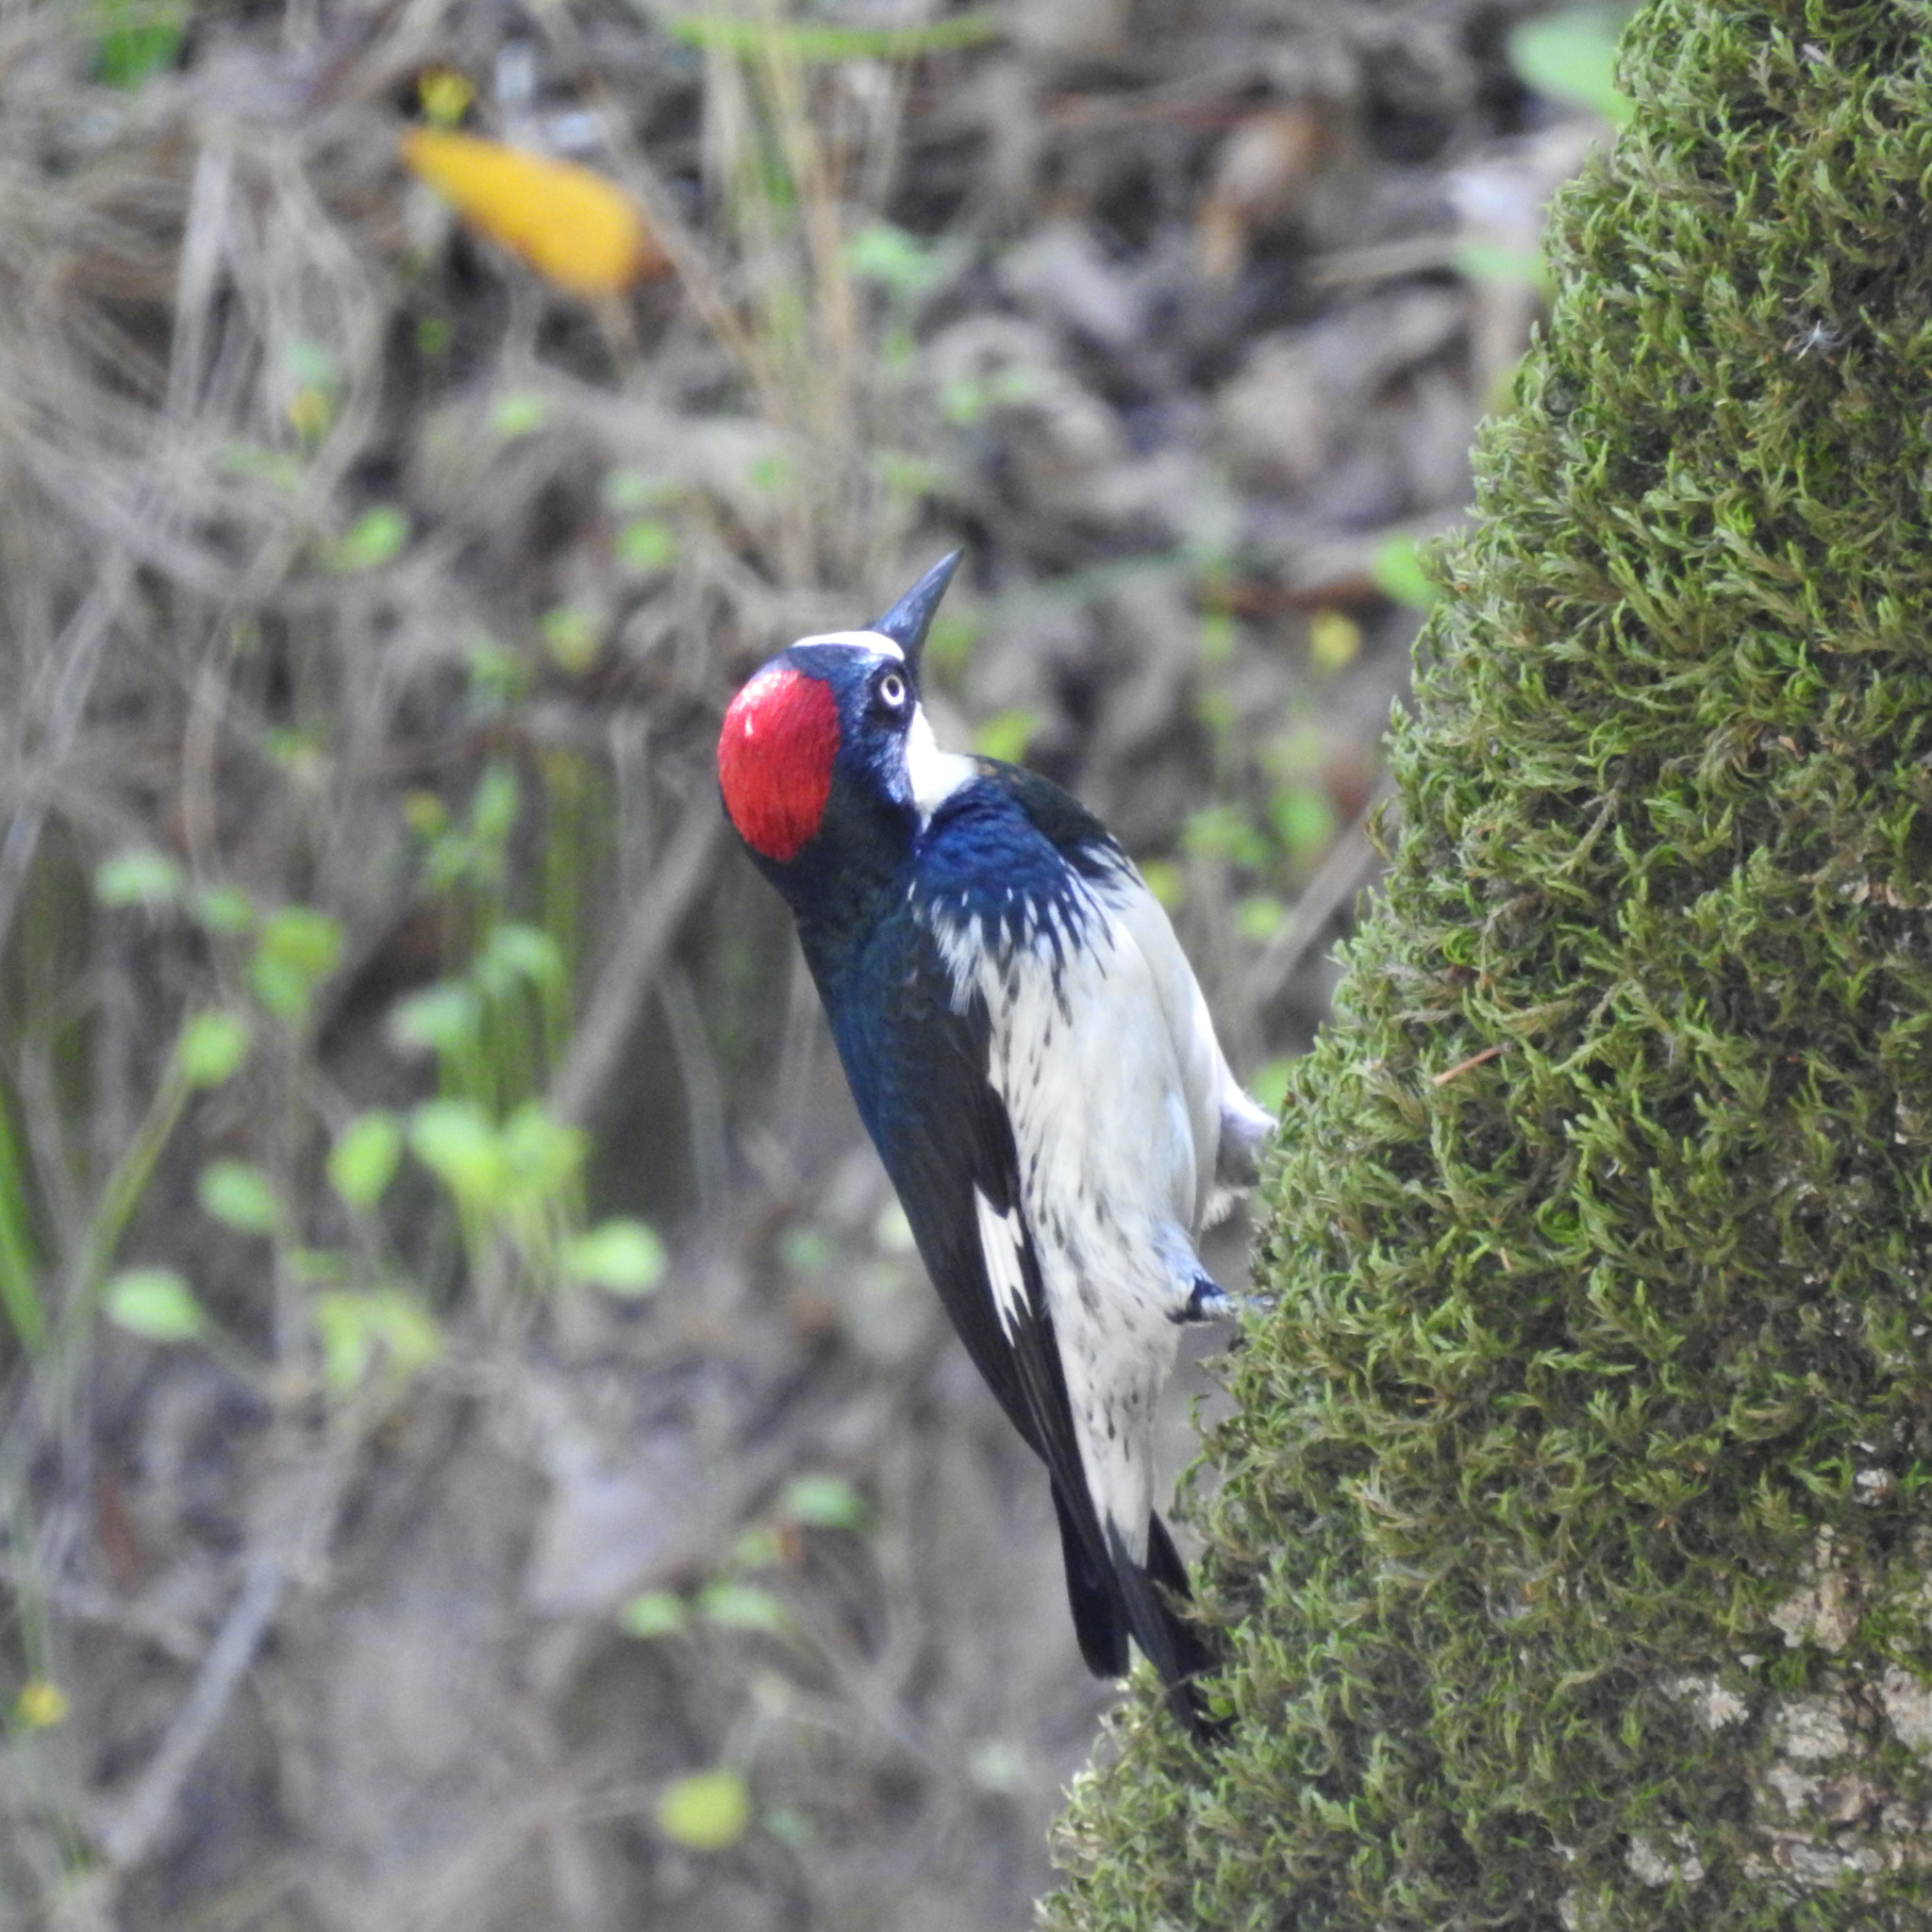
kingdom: Animalia
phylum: Chordata
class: Aves
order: Piciformes
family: Picidae
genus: Melanerpes
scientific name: Melanerpes formicivorus
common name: Acorn woodpecker
